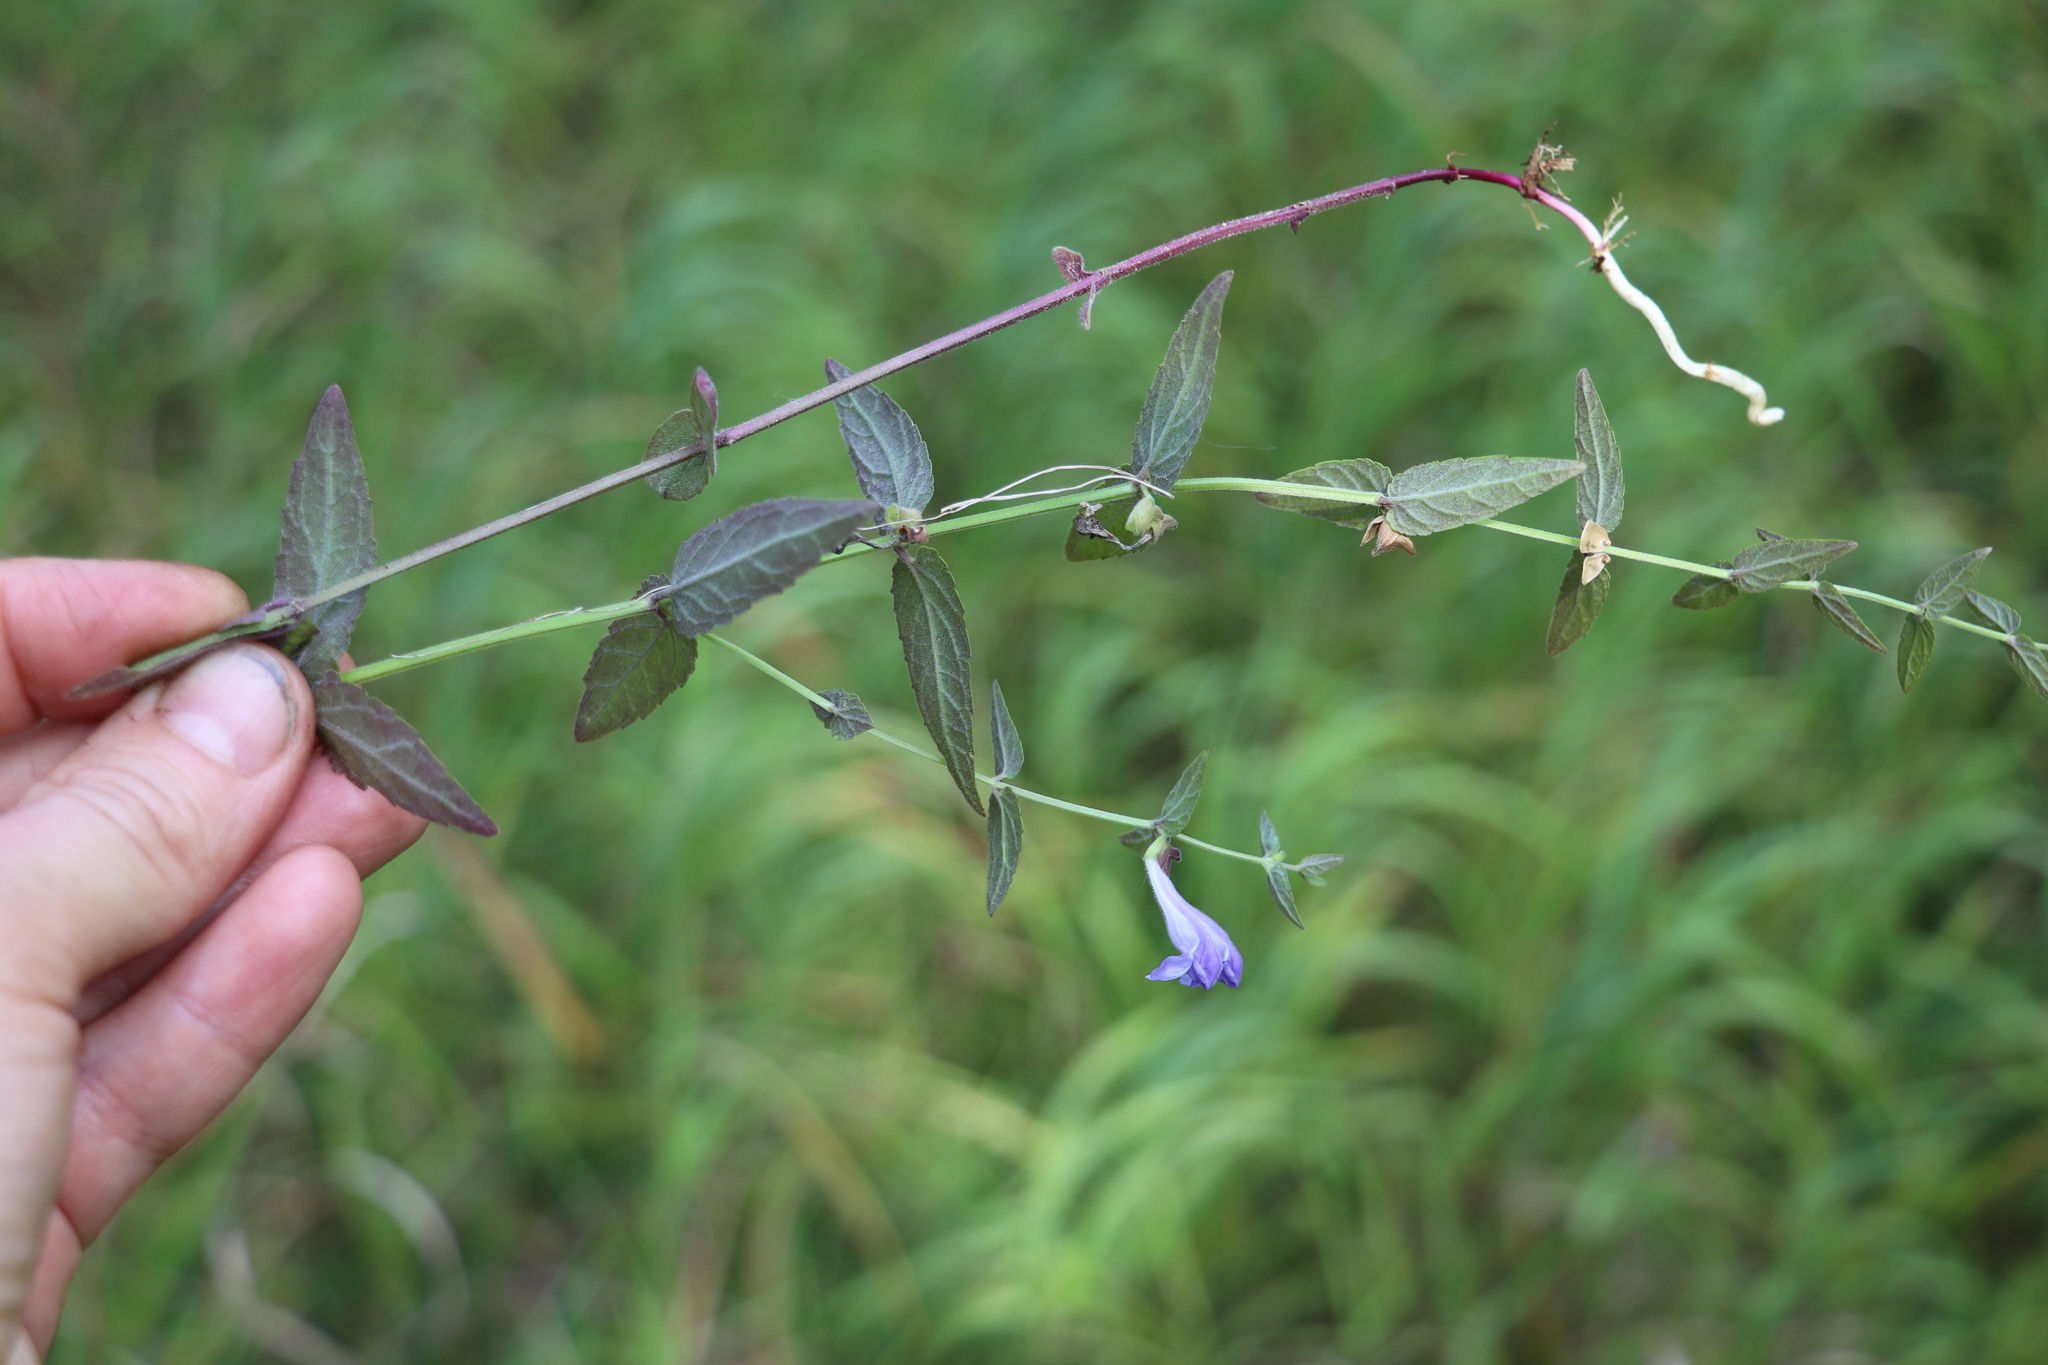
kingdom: Plantae
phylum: Tracheophyta
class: Magnoliopsida
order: Lamiales
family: Lamiaceae
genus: Scutellaria
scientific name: Scutellaria galericulata
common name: Skullcap
